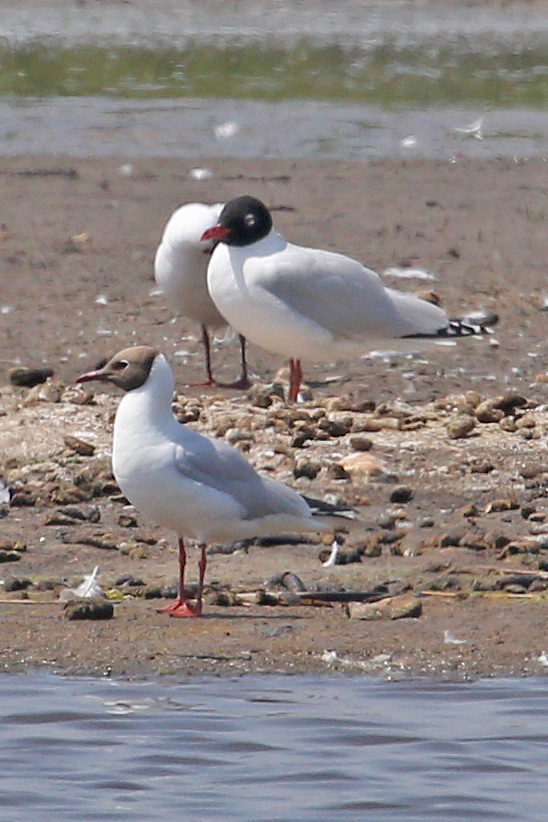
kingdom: Animalia
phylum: Chordata
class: Aves
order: Charadriiformes
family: Laridae
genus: Ichthyaetus
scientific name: Ichthyaetus melanocephalus
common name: Mediterranean gull
